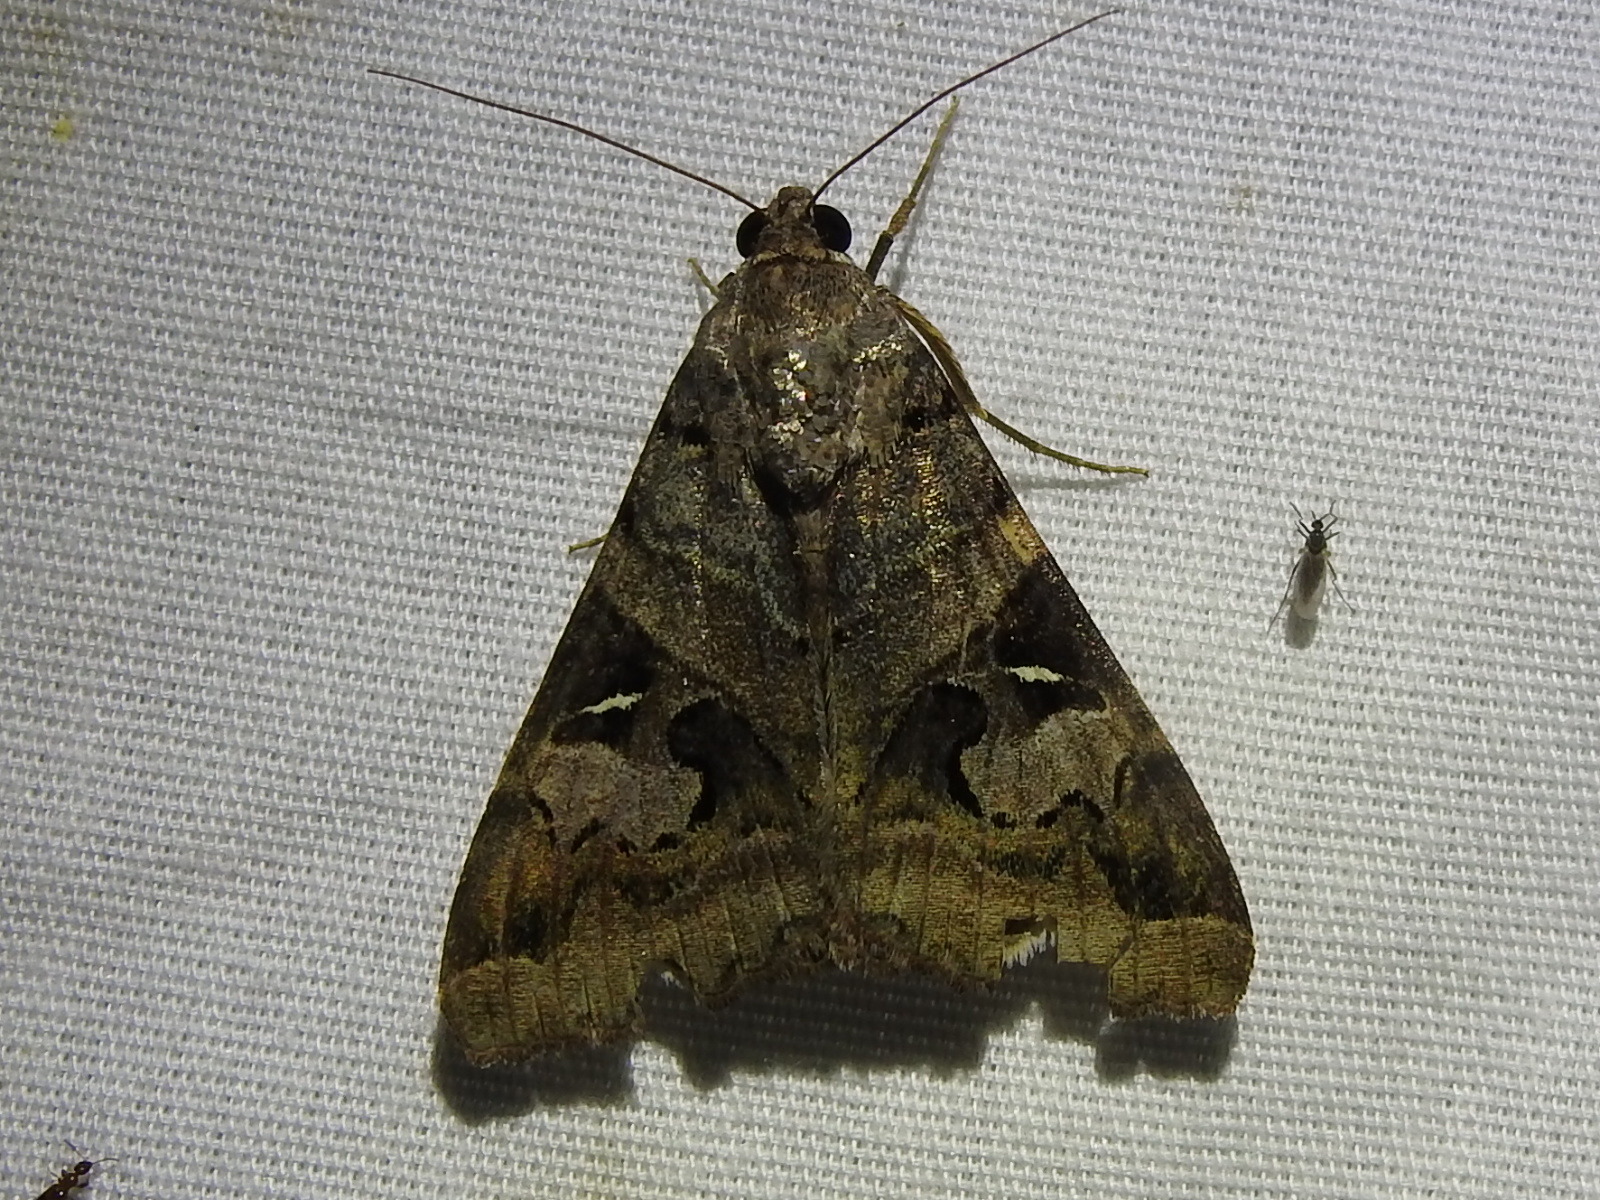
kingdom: Animalia
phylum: Arthropoda
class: Insecta
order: Lepidoptera
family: Erebidae
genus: Melipotis
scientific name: Melipotis indomita
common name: Moth
